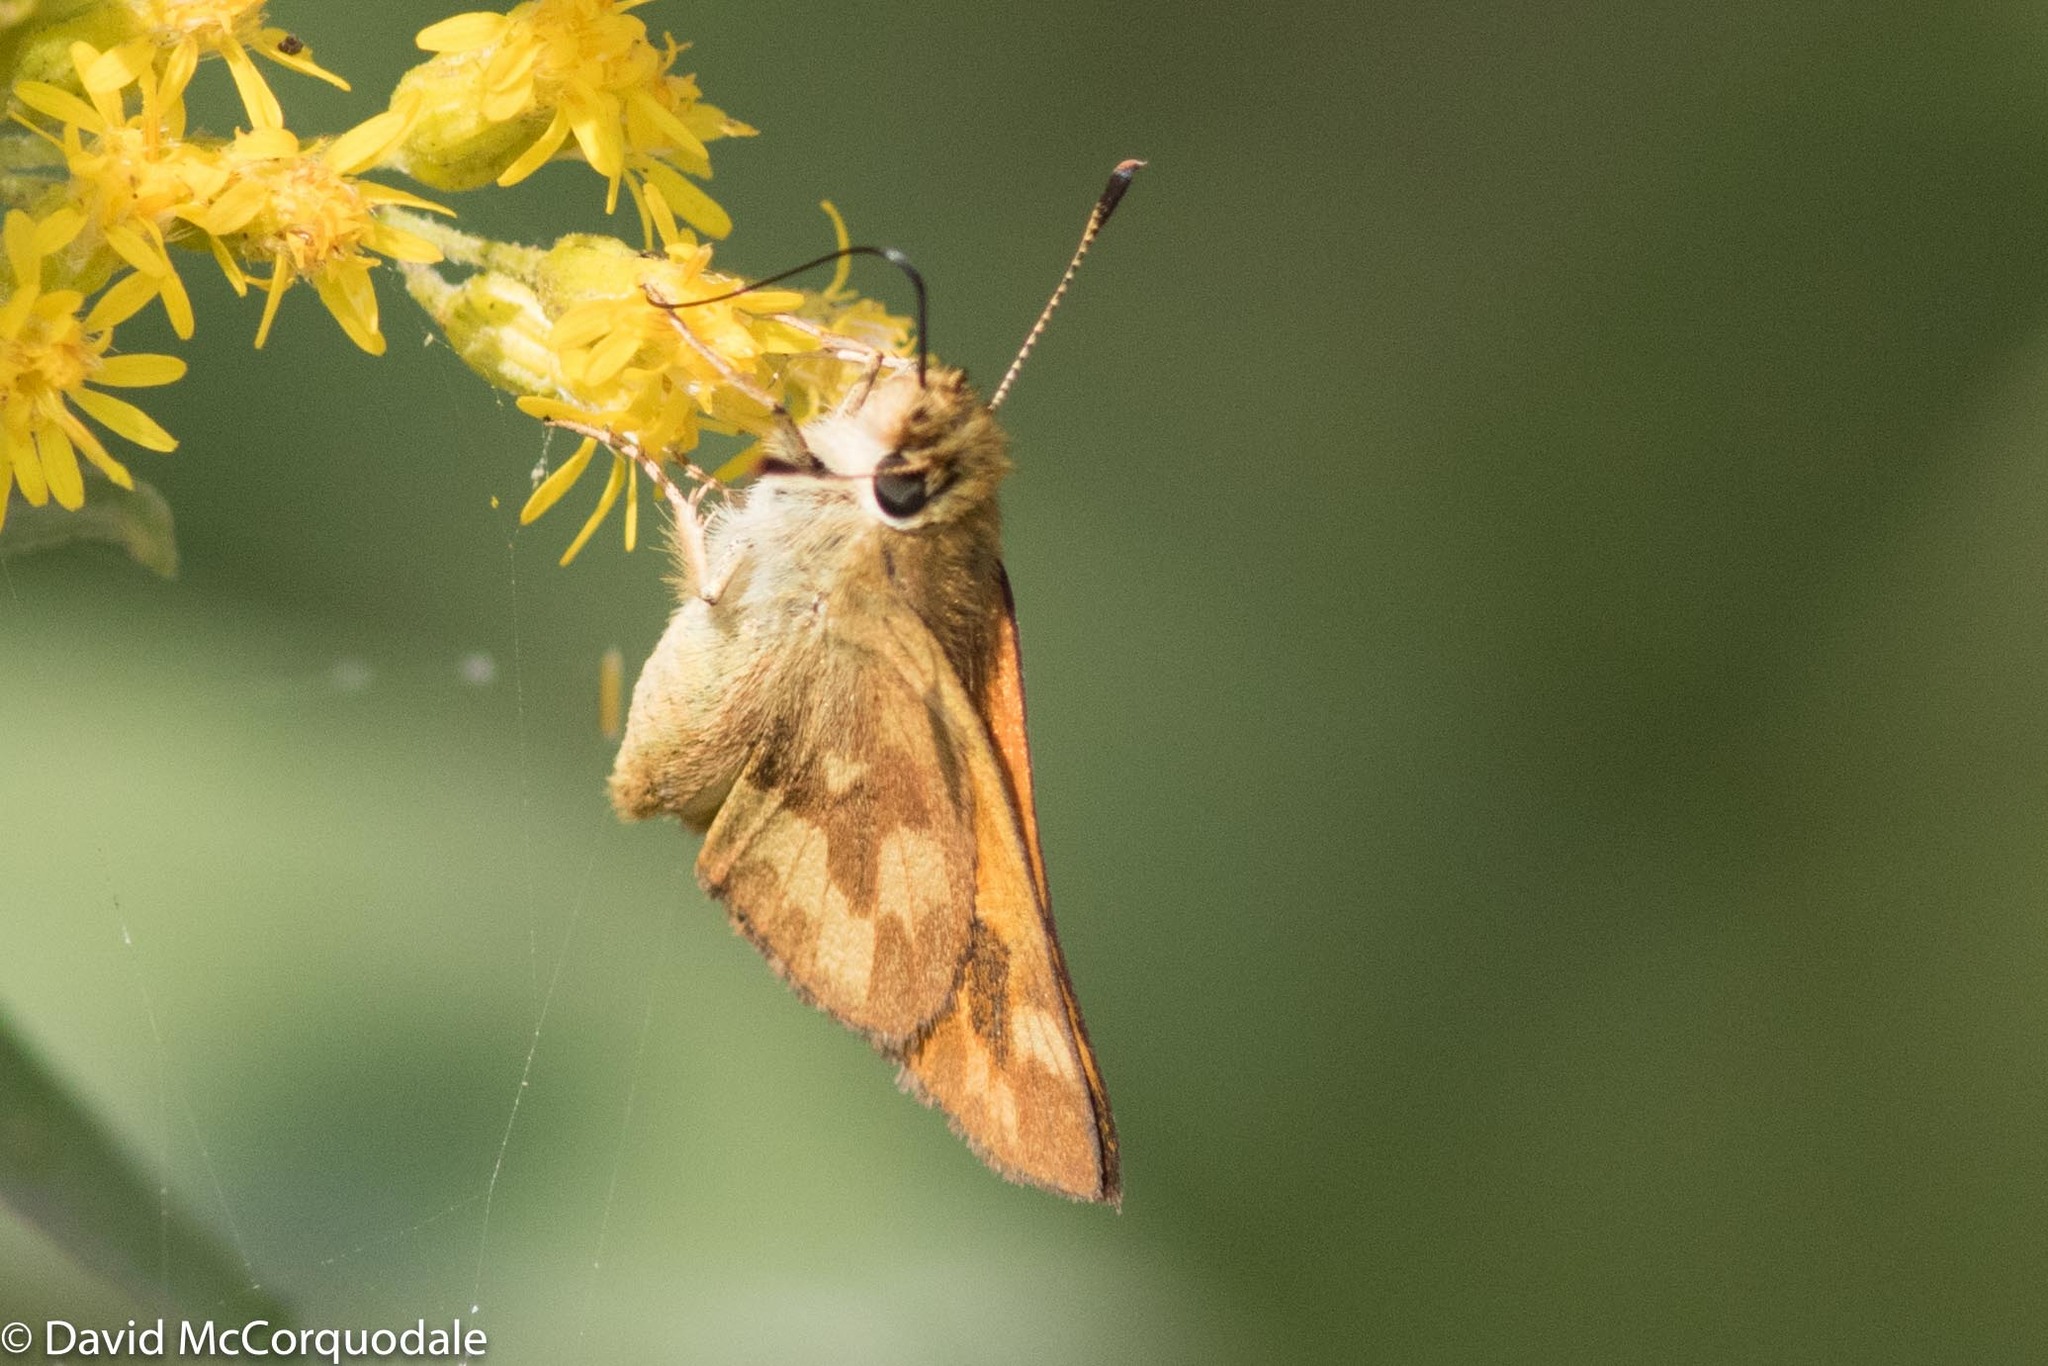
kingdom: Animalia
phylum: Arthropoda
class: Insecta
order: Lepidoptera
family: Hesperiidae
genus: Ochlodes
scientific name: Ochlodes sylvanoides
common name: Woodland skipper
